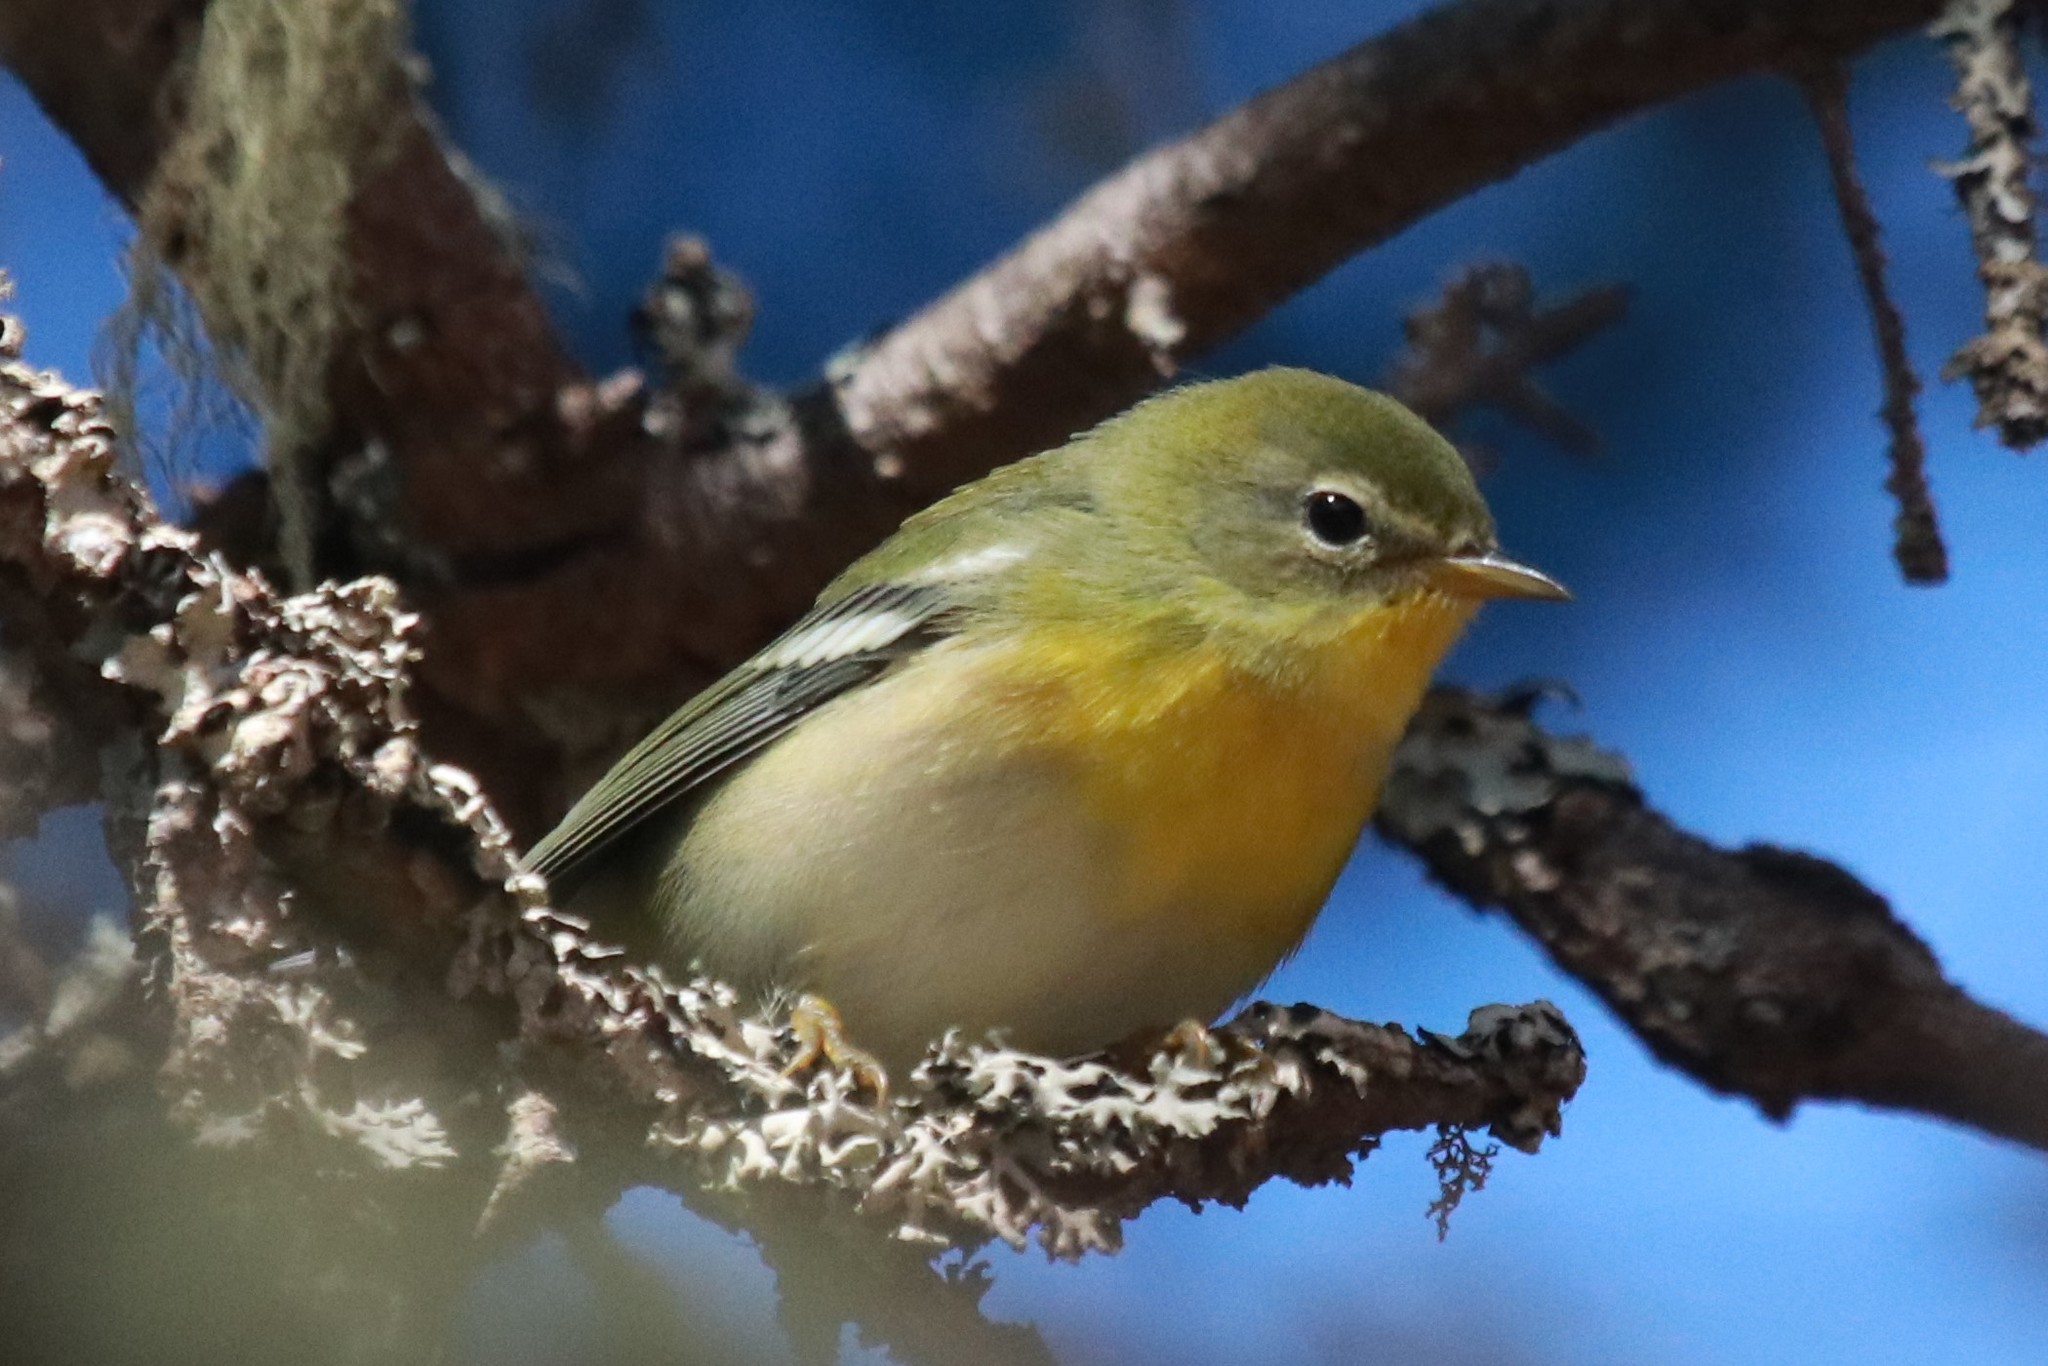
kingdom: Animalia
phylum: Chordata
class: Aves
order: Passeriformes
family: Parulidae
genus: Setophaga
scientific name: Setophaga americana
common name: Northern parula
